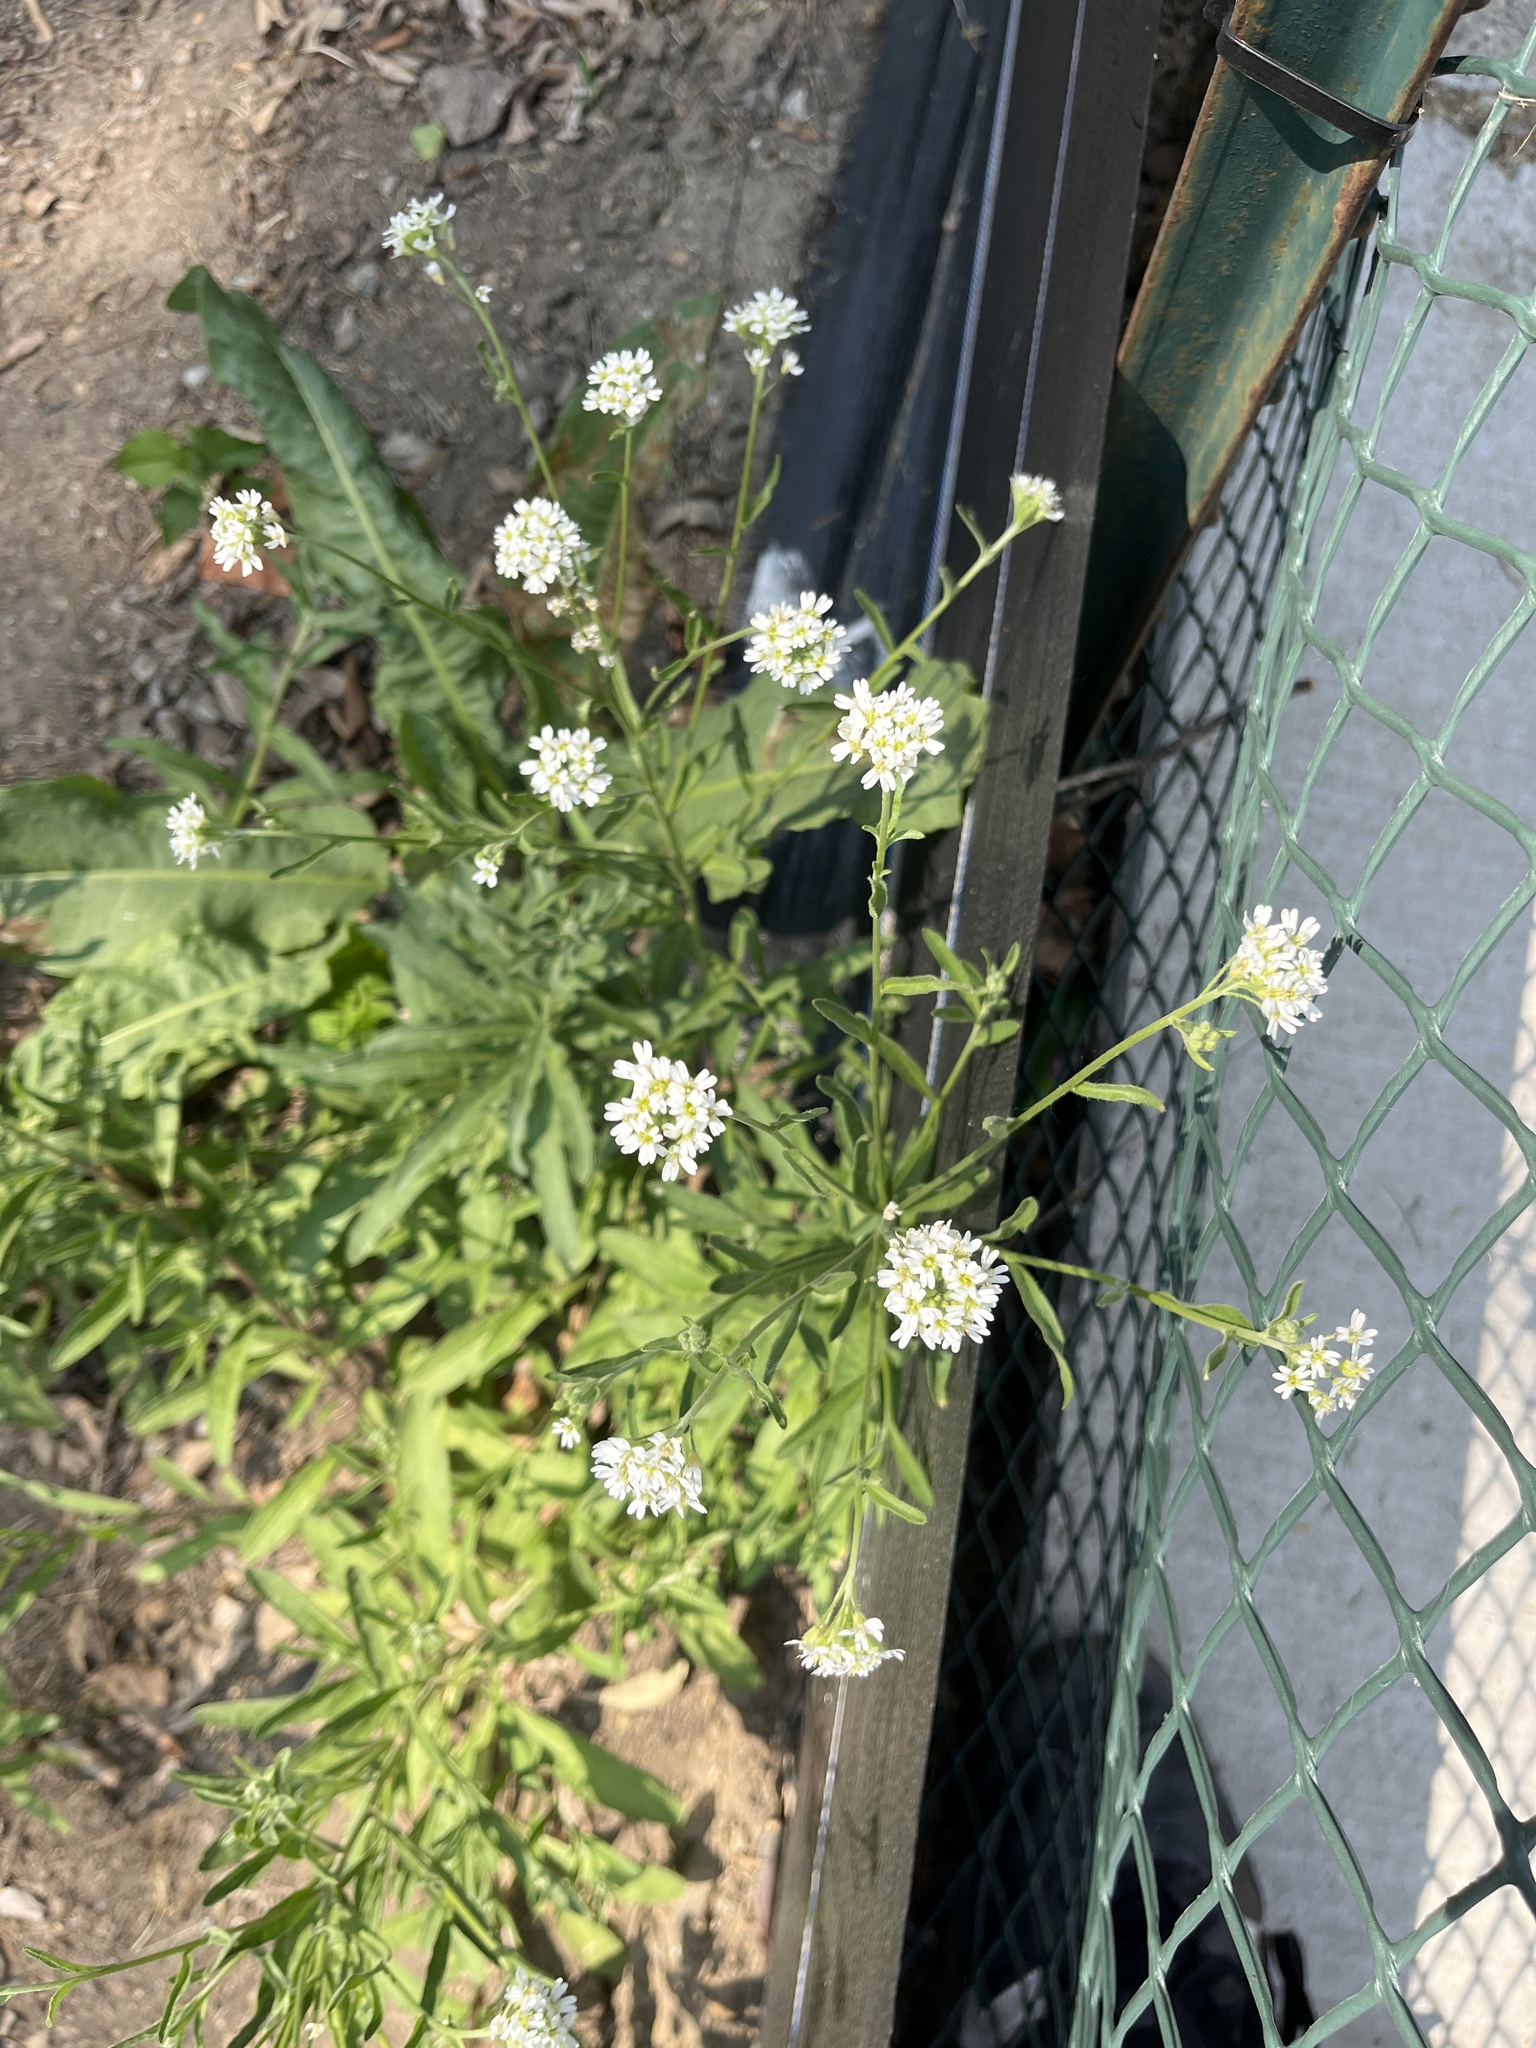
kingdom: Plantae
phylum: Tracheophyta
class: Magnoliopsida
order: Brassicales
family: Brassicaceae
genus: Berteroa
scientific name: Berteroa incana
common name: Hoary alison
